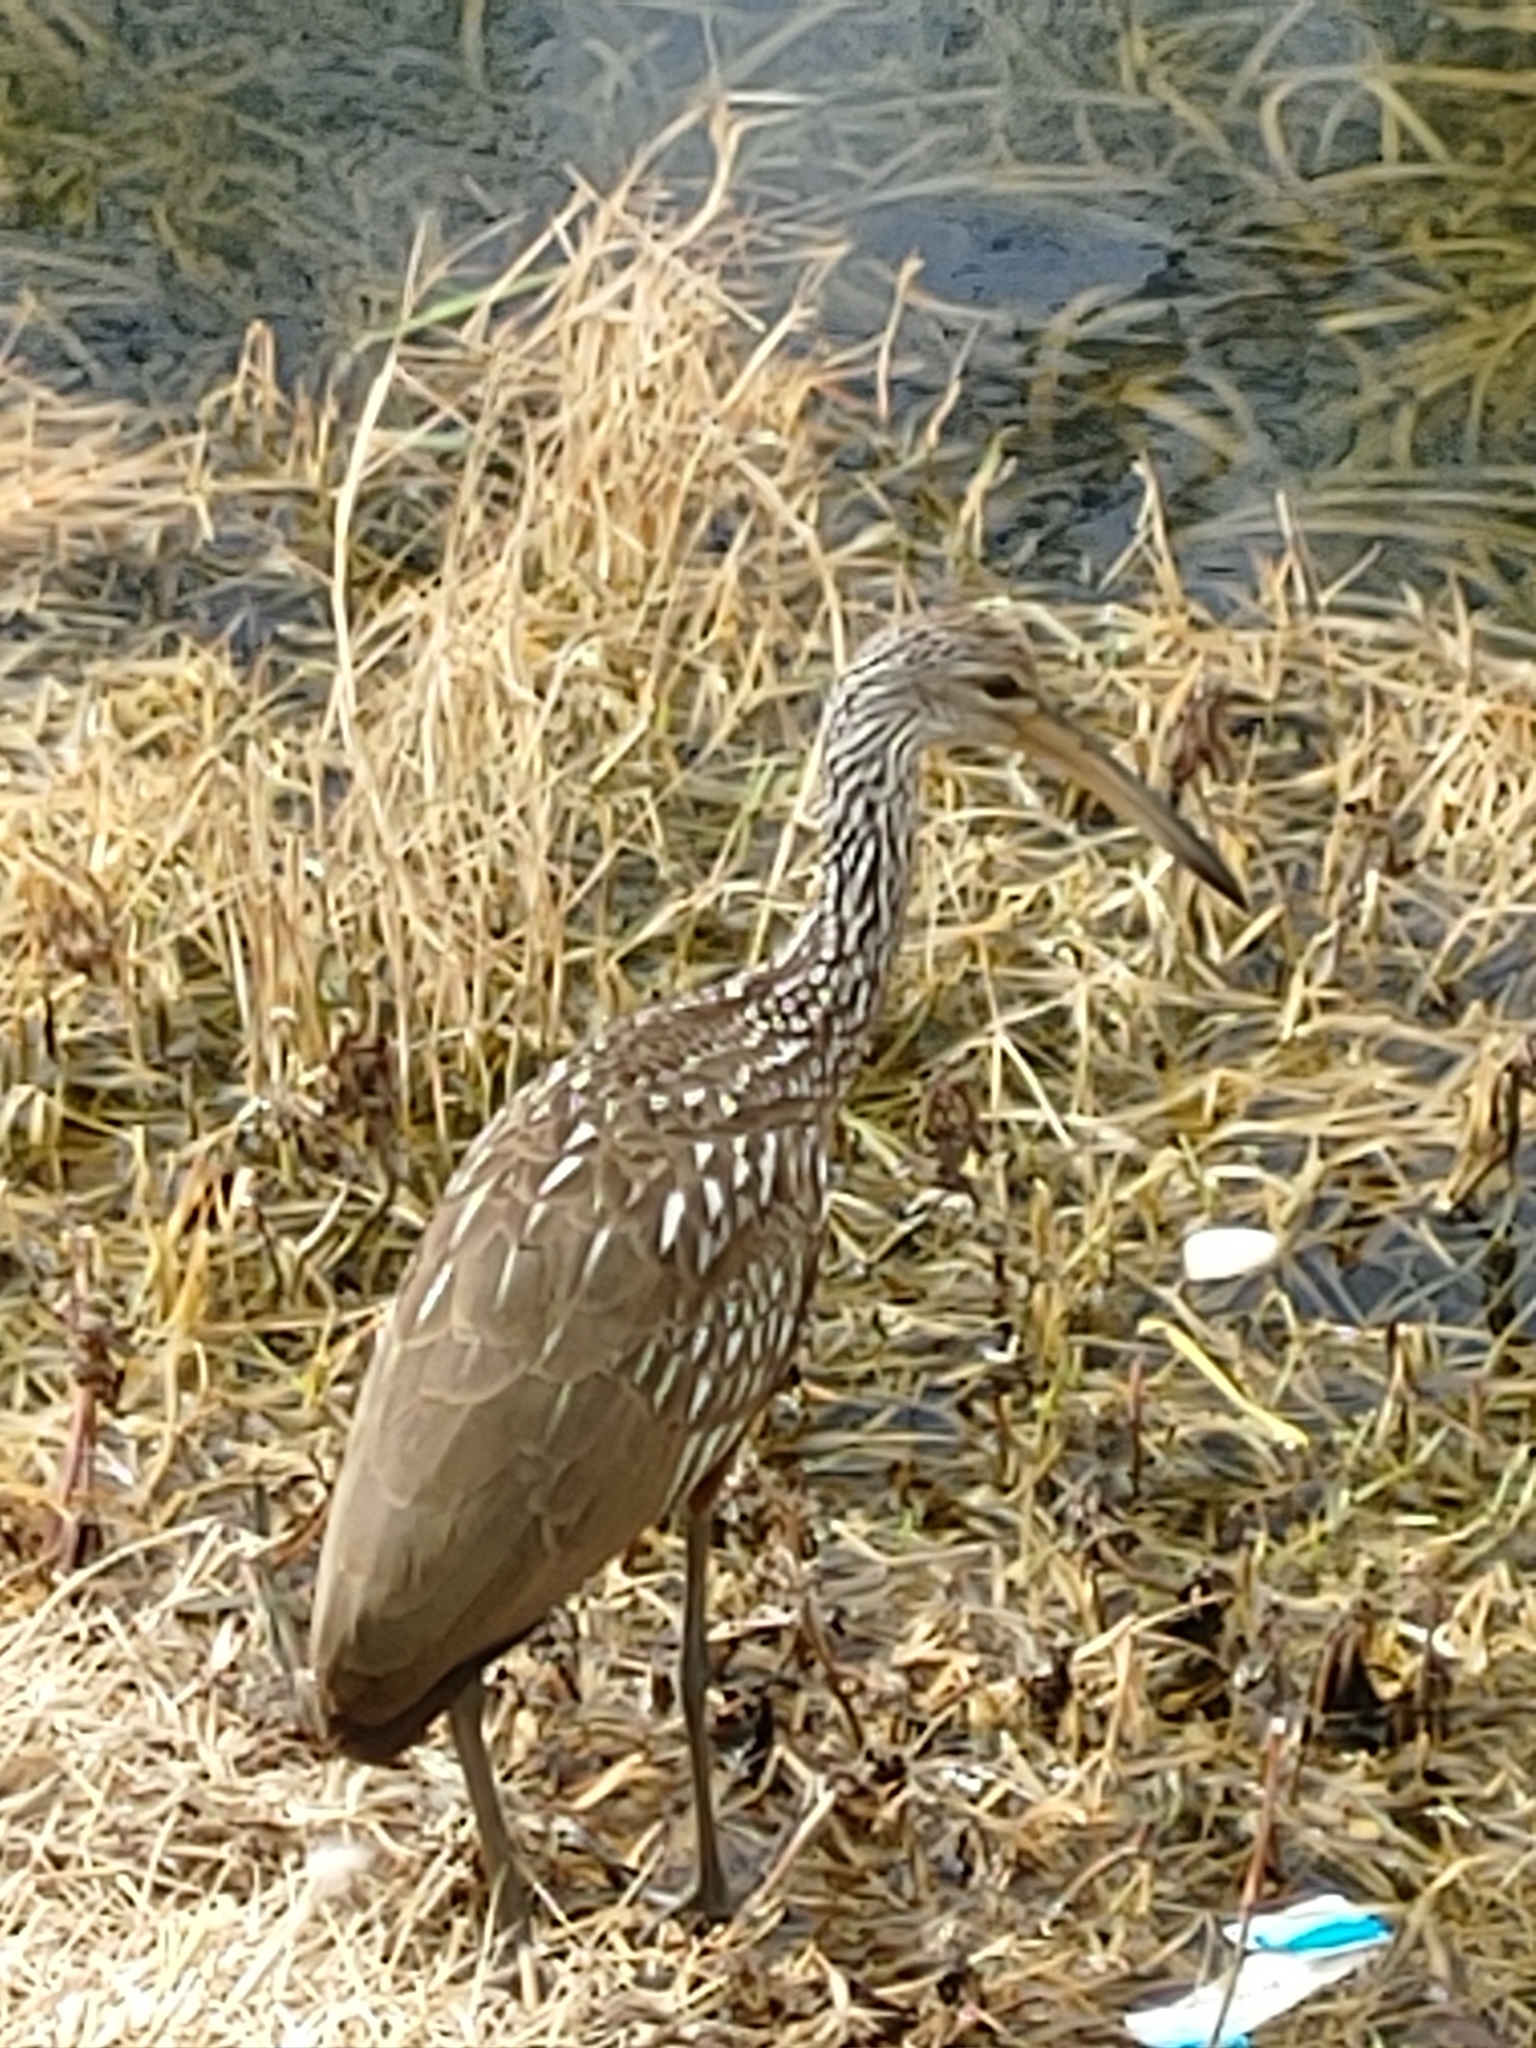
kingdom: Animalia
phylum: Chordata
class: Aves
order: Gruiformes
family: Aramidae
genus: Aramus
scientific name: Aramus guarauna
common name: Limpkin
